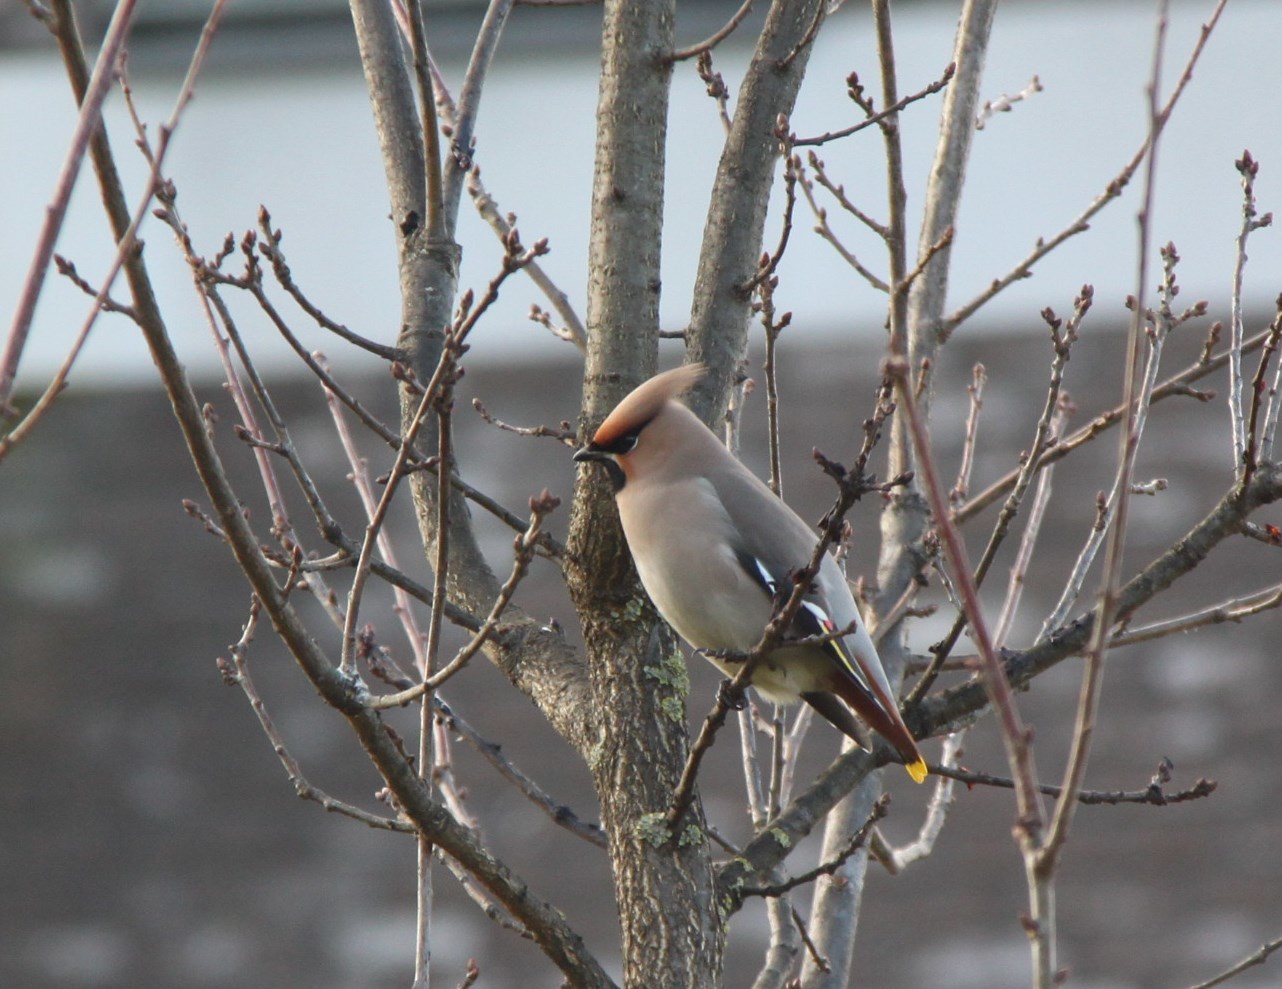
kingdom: Animalia
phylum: Chordata
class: Aves
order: Passeriformes
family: Bombycillidae
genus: Bombycilla
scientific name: Bombycilla garrulus
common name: Bohemian waxwing
